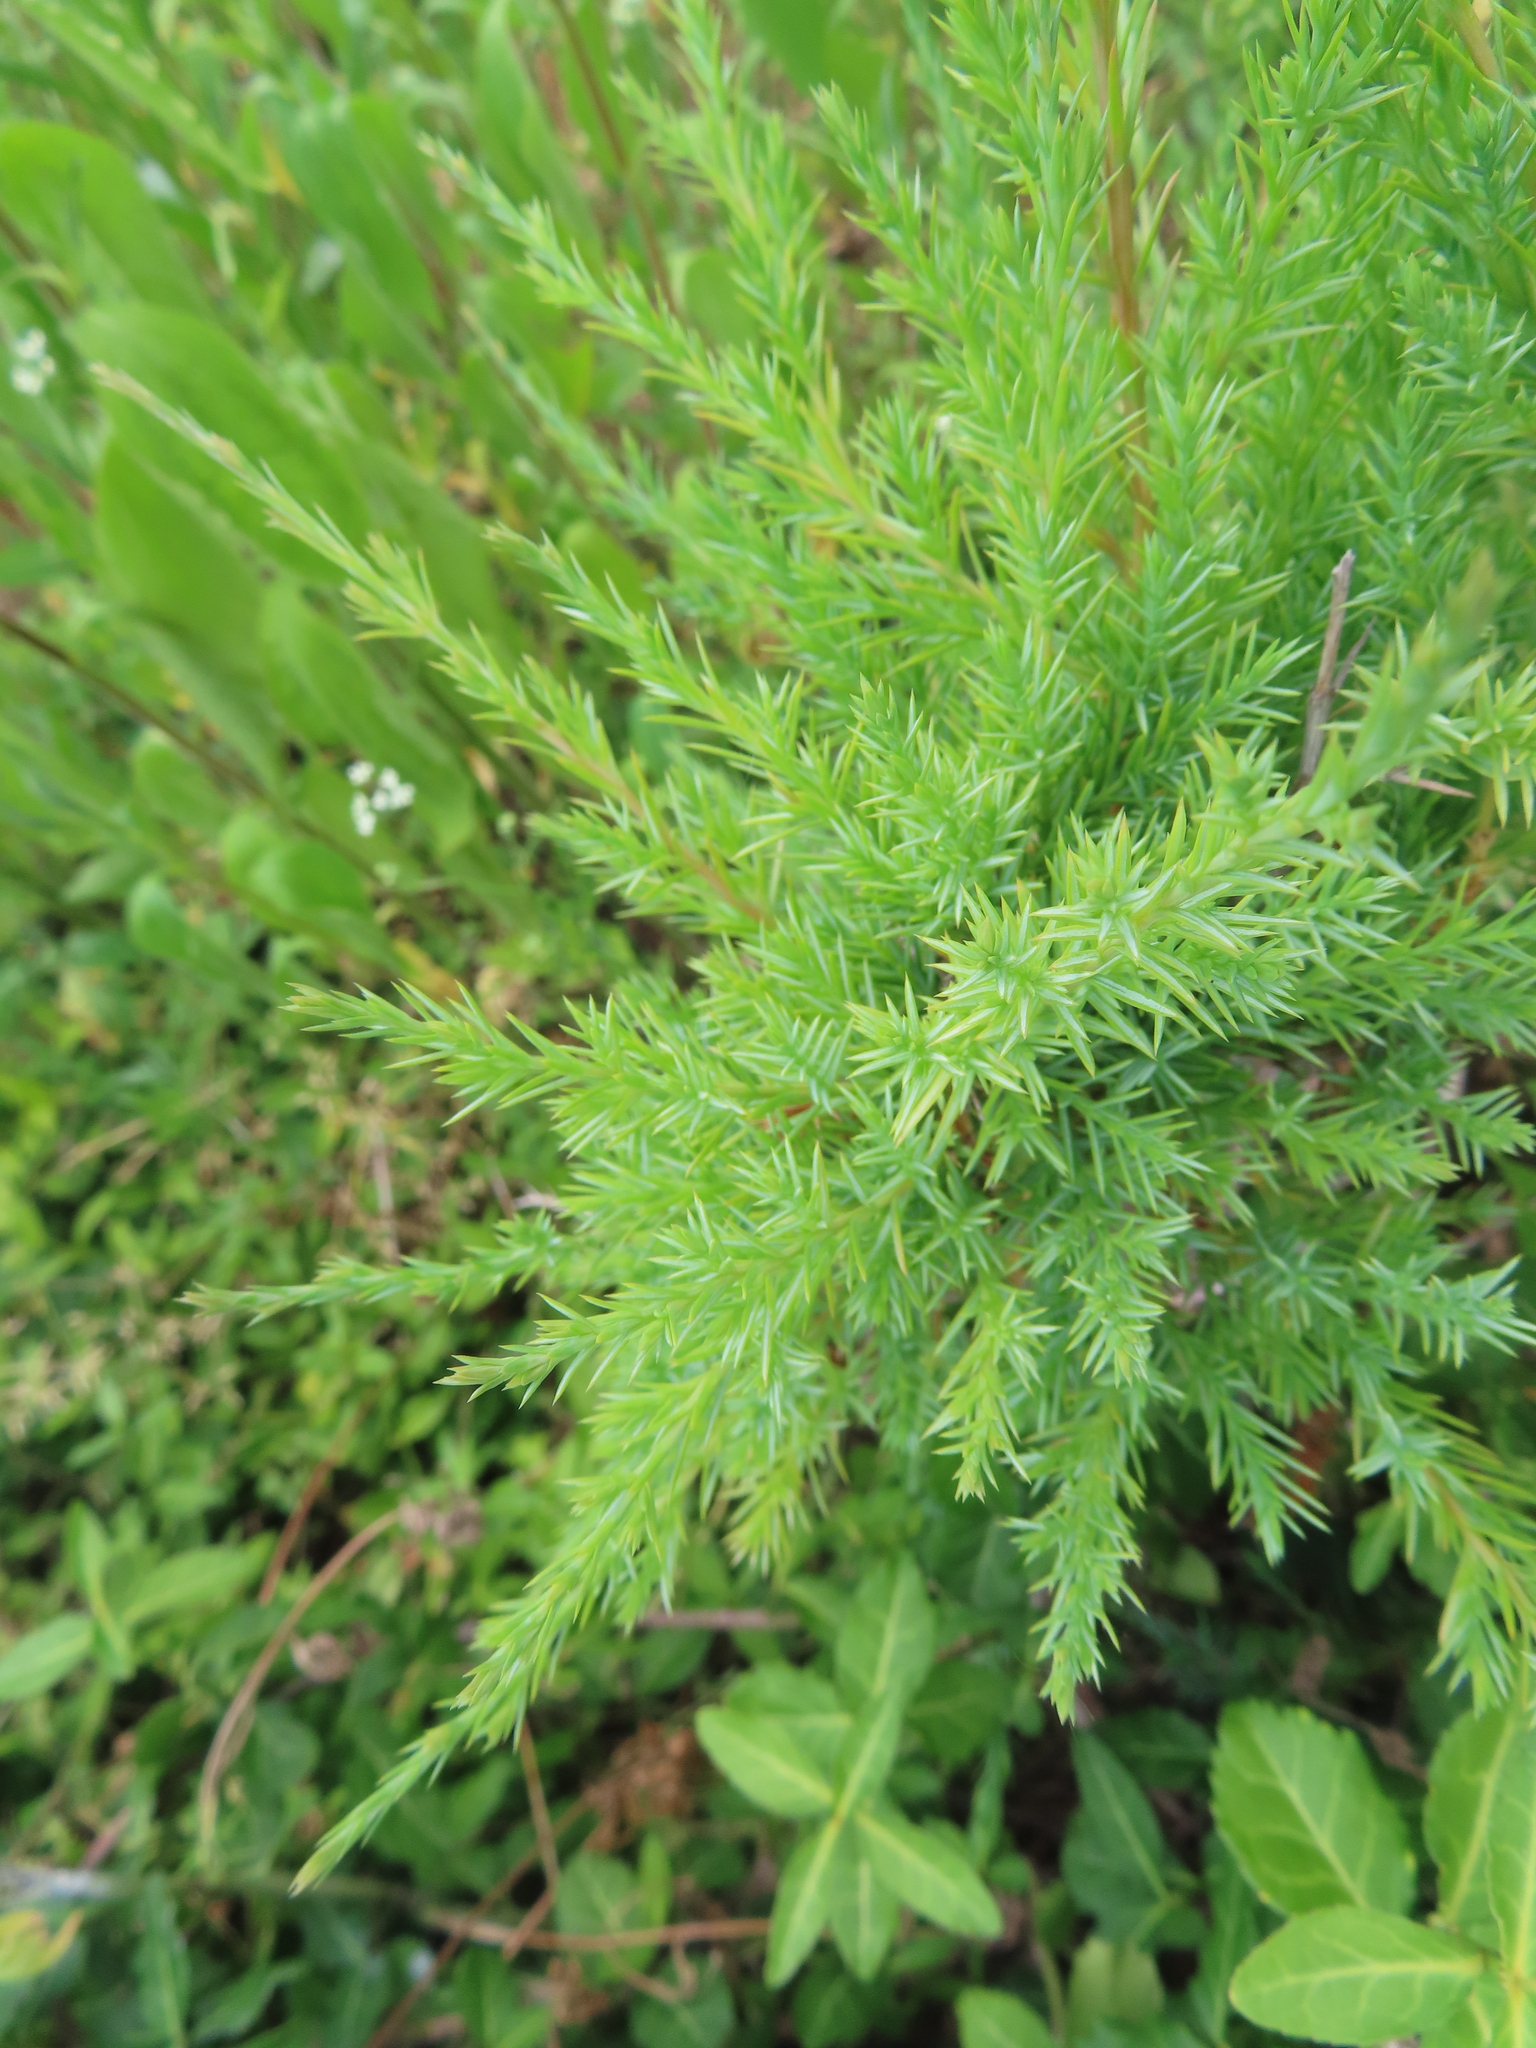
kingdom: Plantae
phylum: Tracheophyta
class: Pinopsida
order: Pinales
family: Cupressaceae
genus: Juniperus
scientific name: Juniperus virginiana
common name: Red juniper
